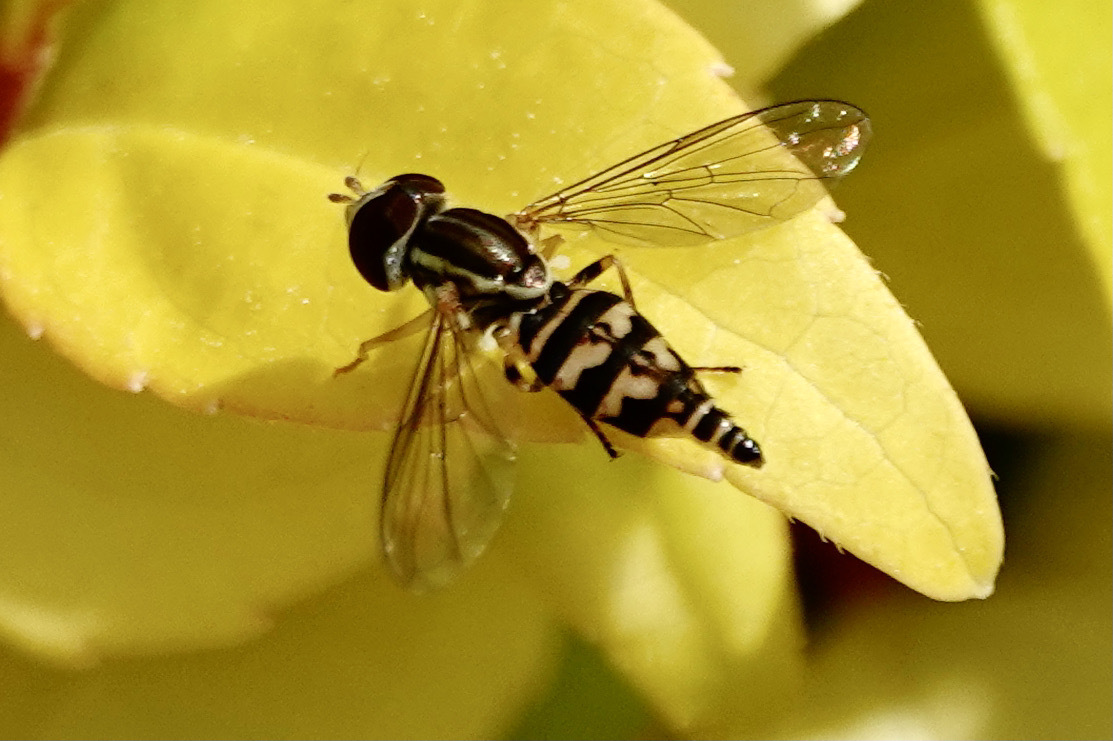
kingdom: Animalia
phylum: Arthropoda
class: Insecta
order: Diptera
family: Syrphidae
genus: Toxomerus
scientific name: Toxomerus geminatus
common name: Eastern calligrapher
